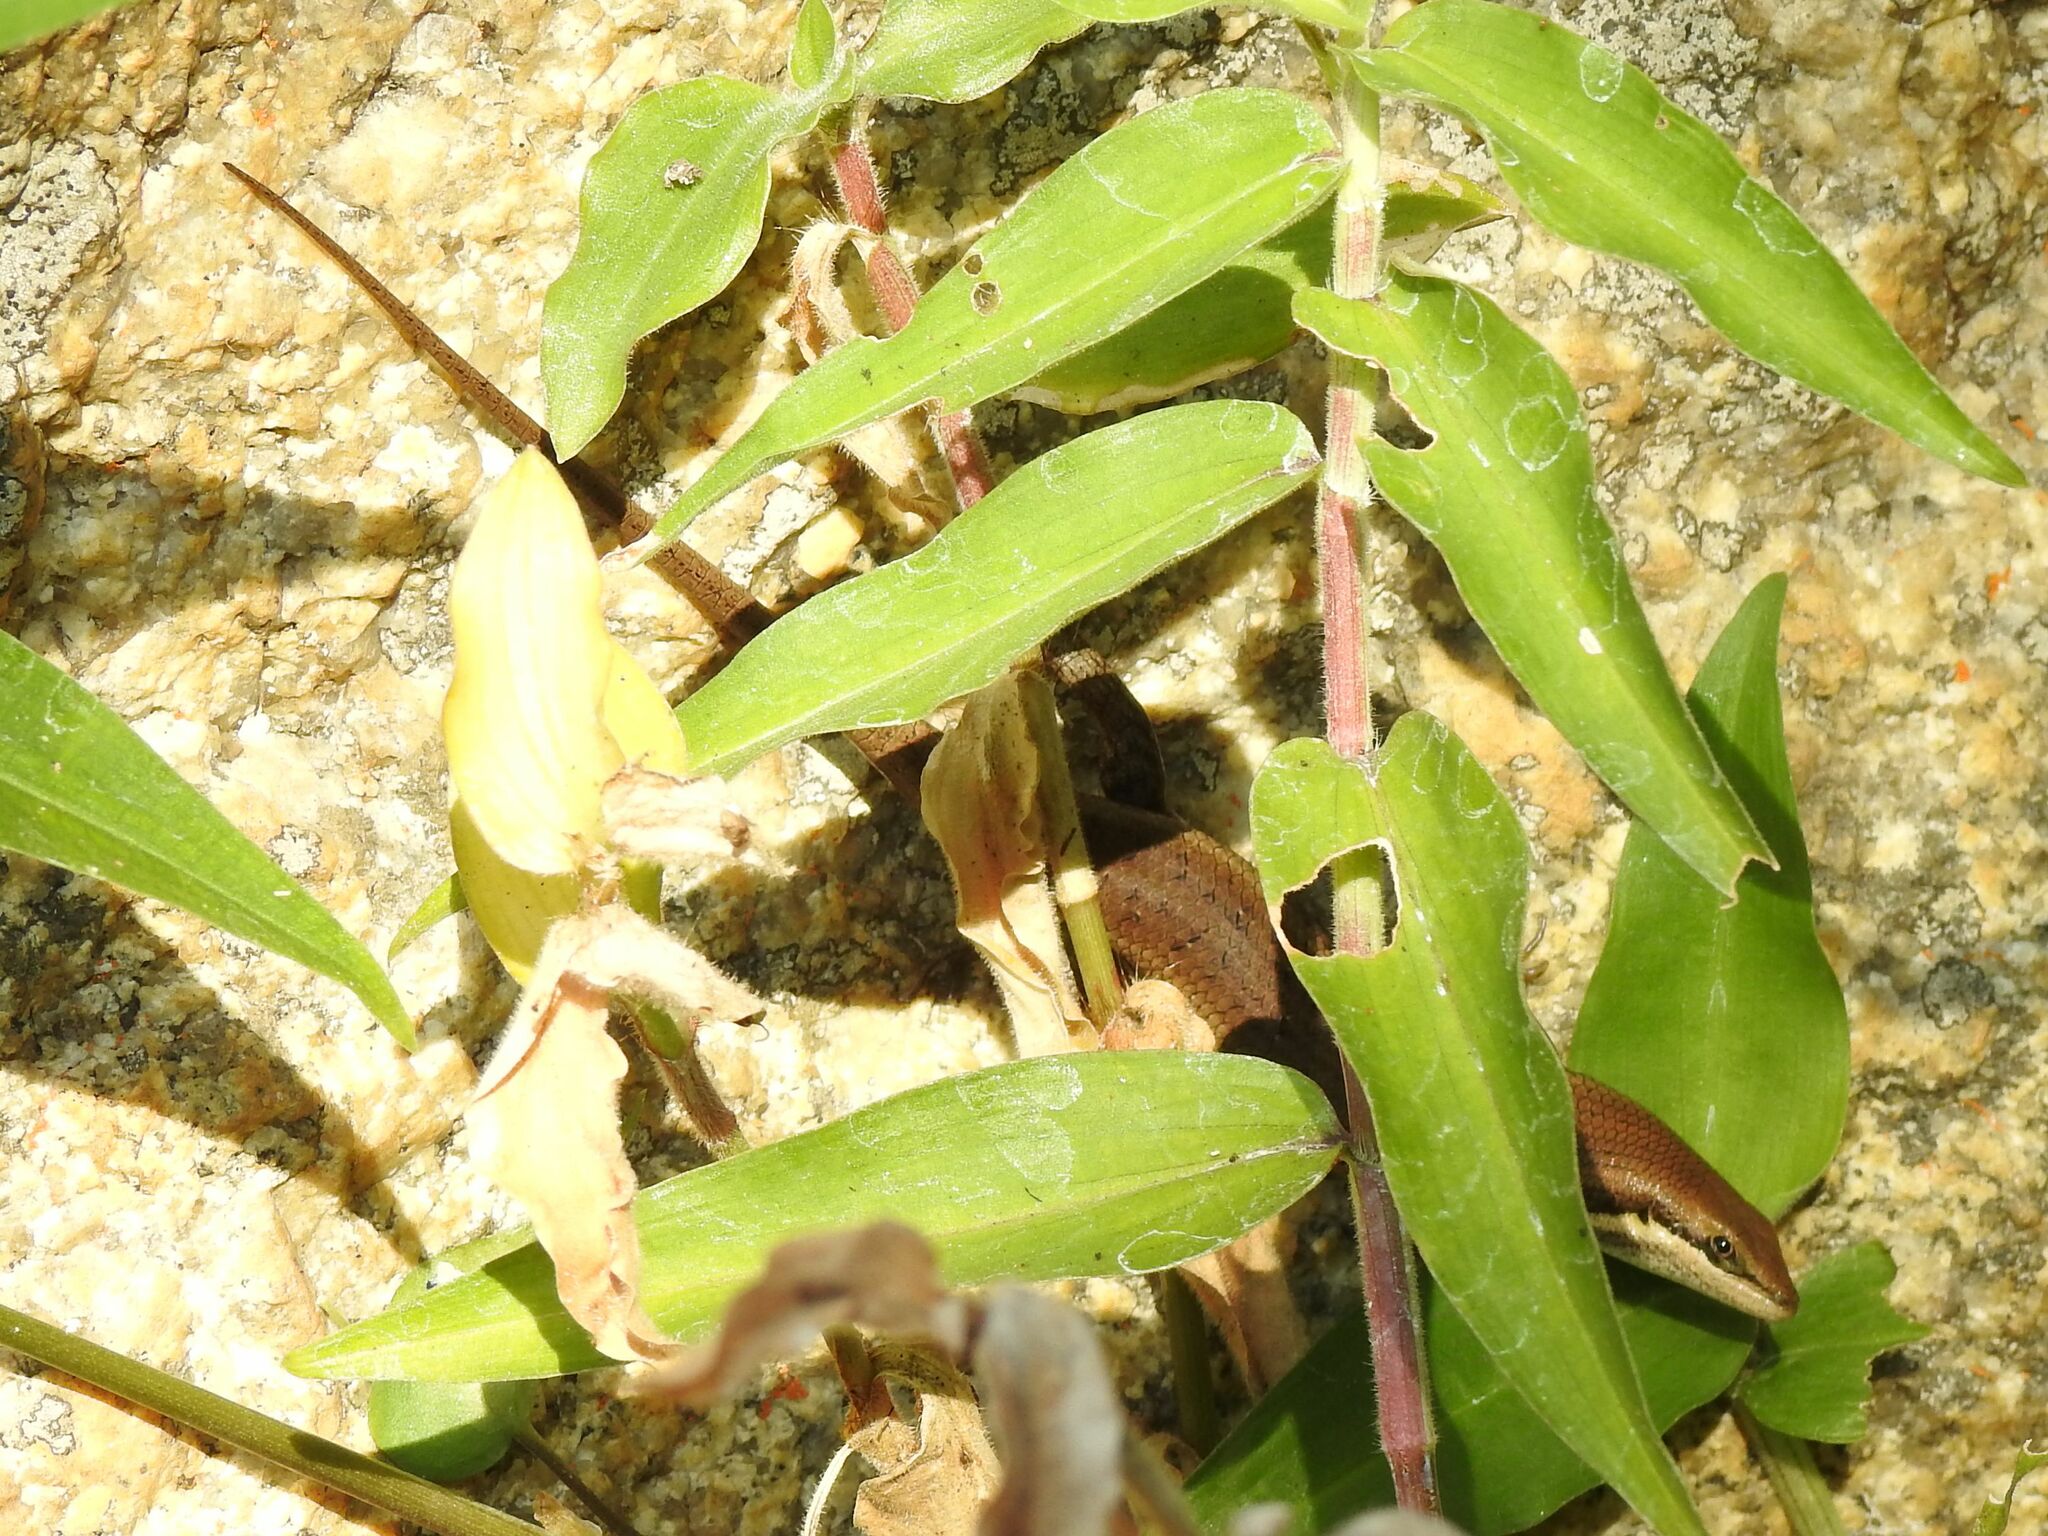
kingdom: Animalia
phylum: Chordata
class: Squamata
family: Scincidae
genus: Trachylepis
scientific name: Trachylepis varia
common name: Eastern variable skink
